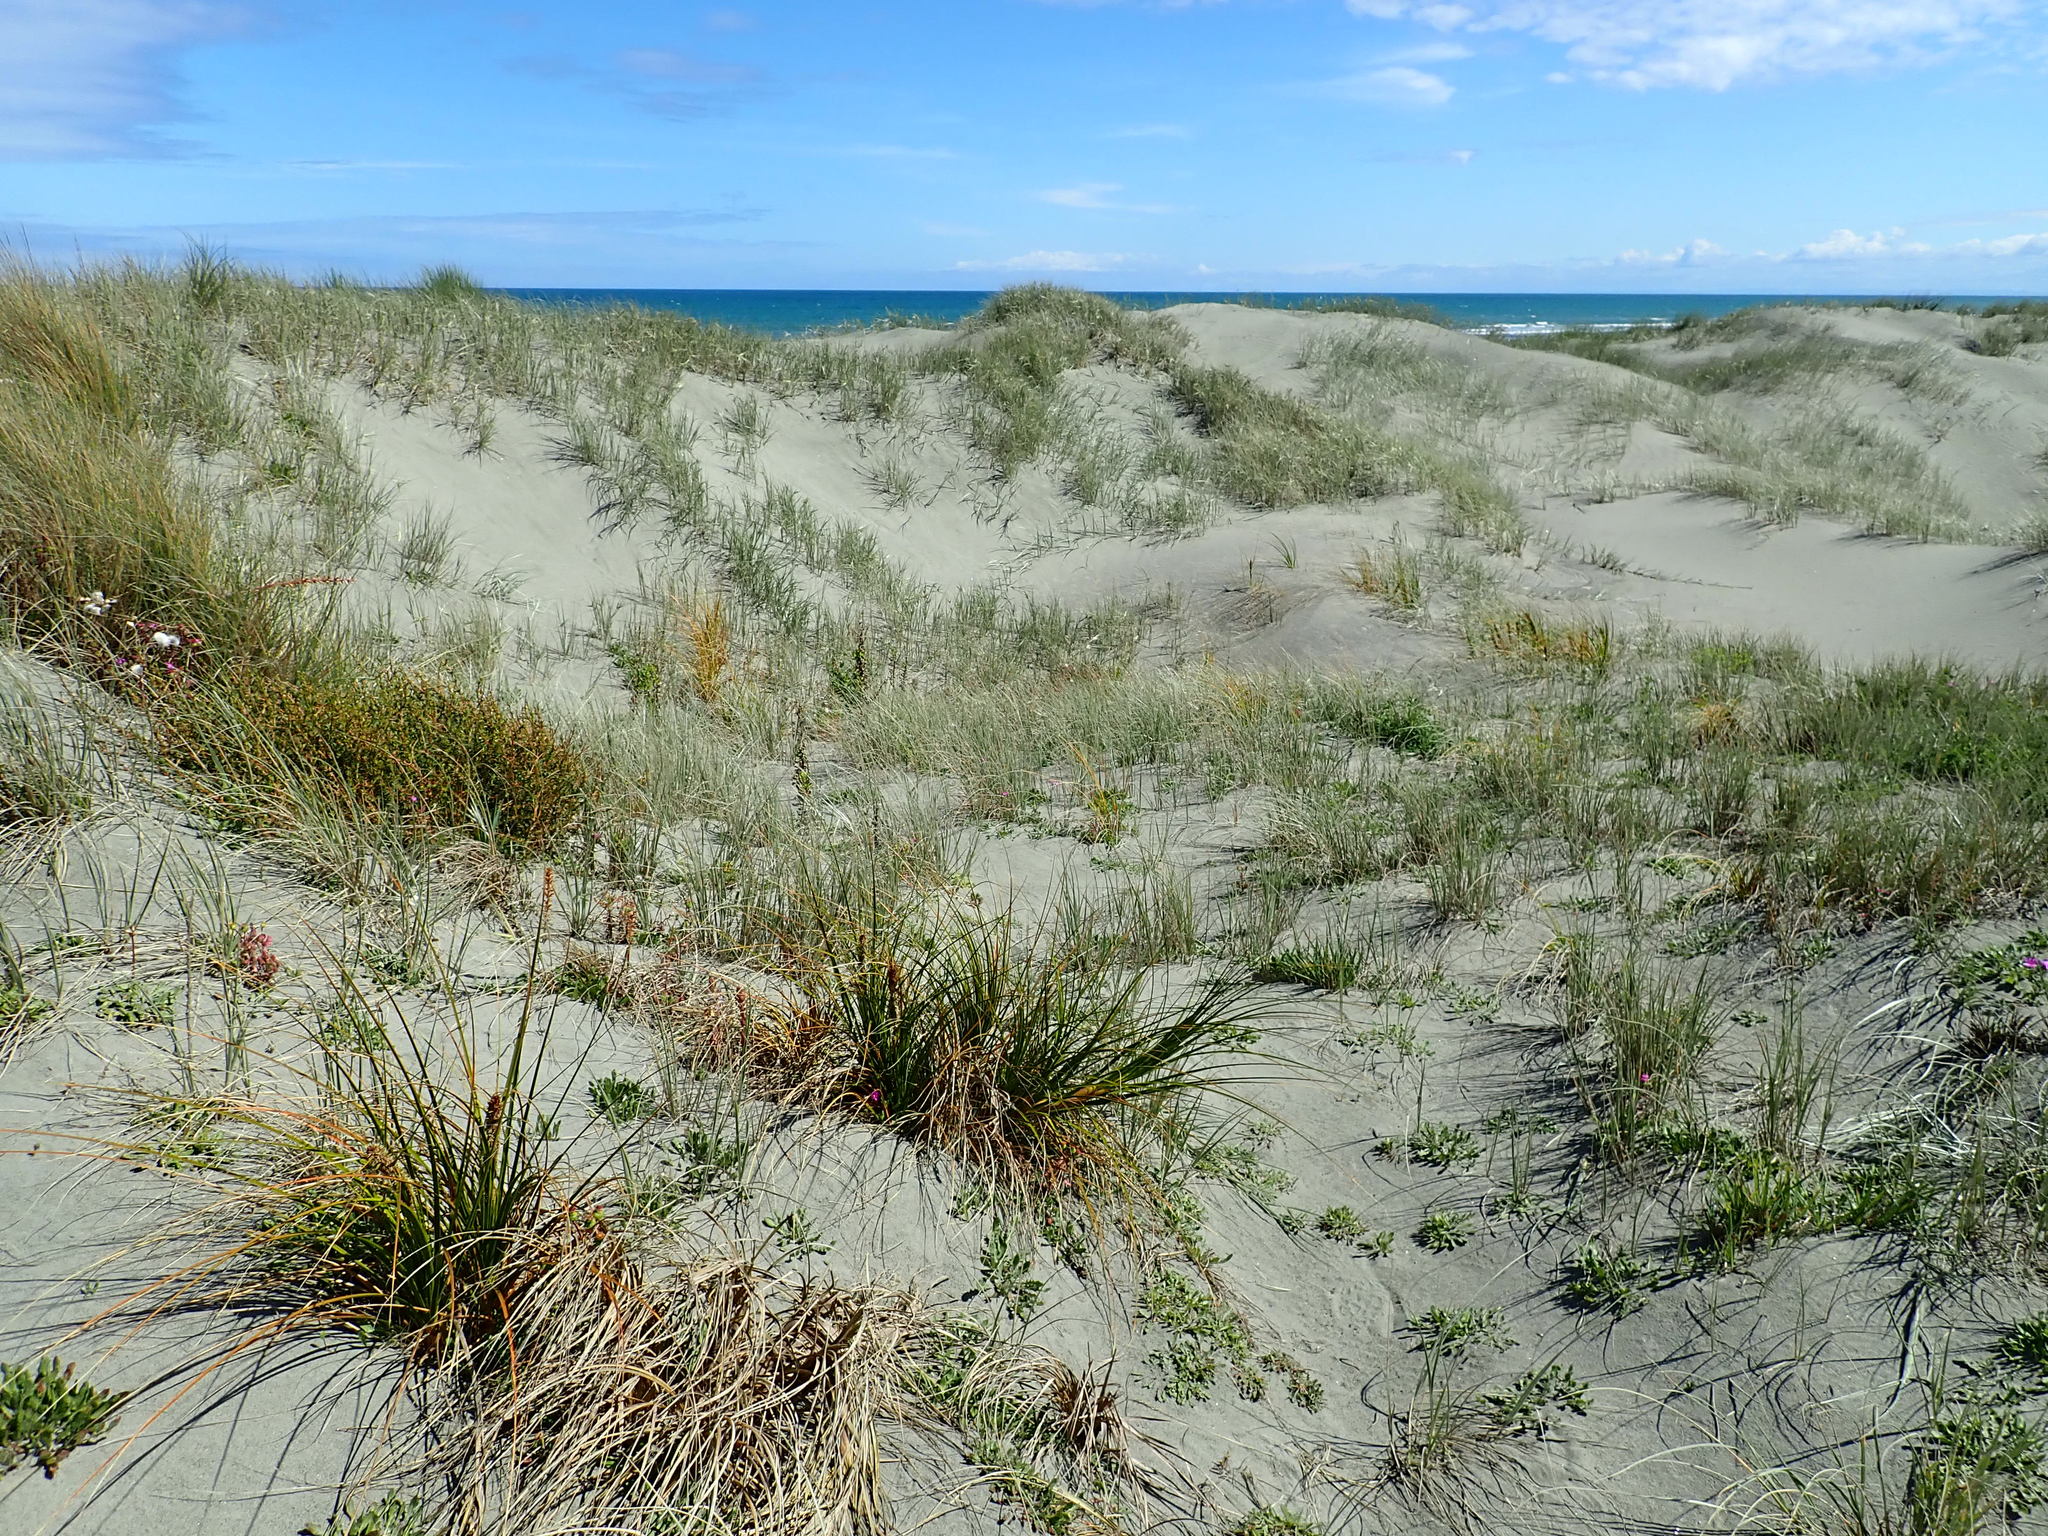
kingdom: Plantae
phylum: Tracheophyta
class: Liliopsida
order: Poales
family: Cyperaceae
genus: Ficinia
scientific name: Ficinia spiralis
